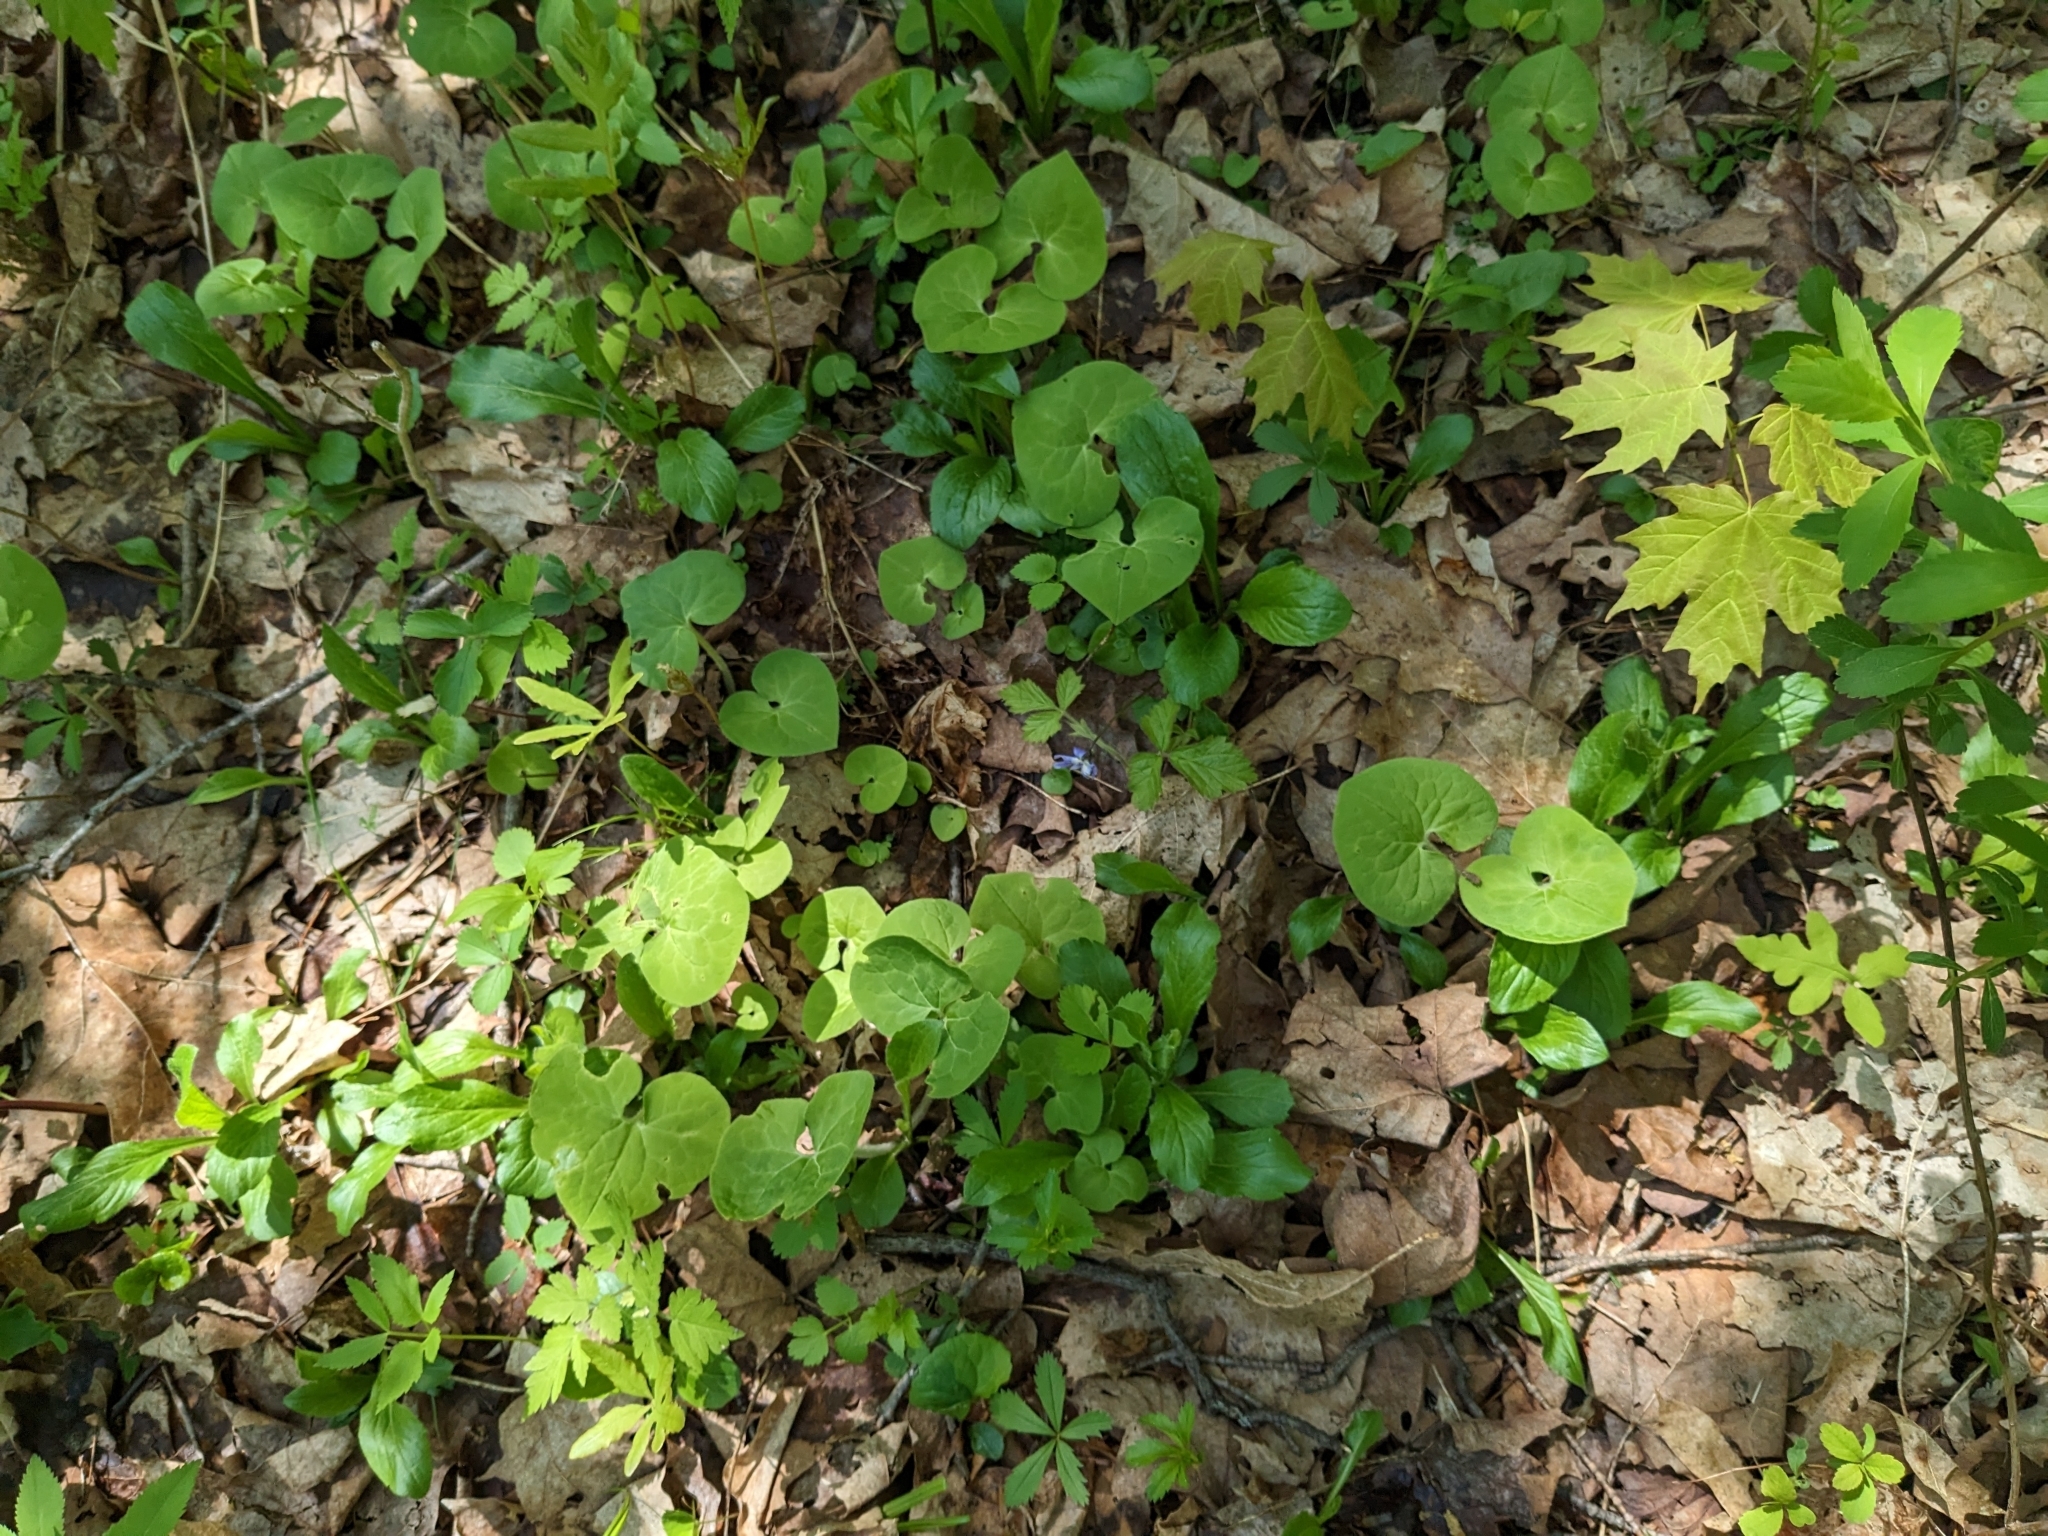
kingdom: Plantae
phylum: Tracheophyta
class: Magnoliopsida
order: Piperales
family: Aristolochiaceae
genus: Asarum
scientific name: Asarum canadense
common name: Wild ginger
